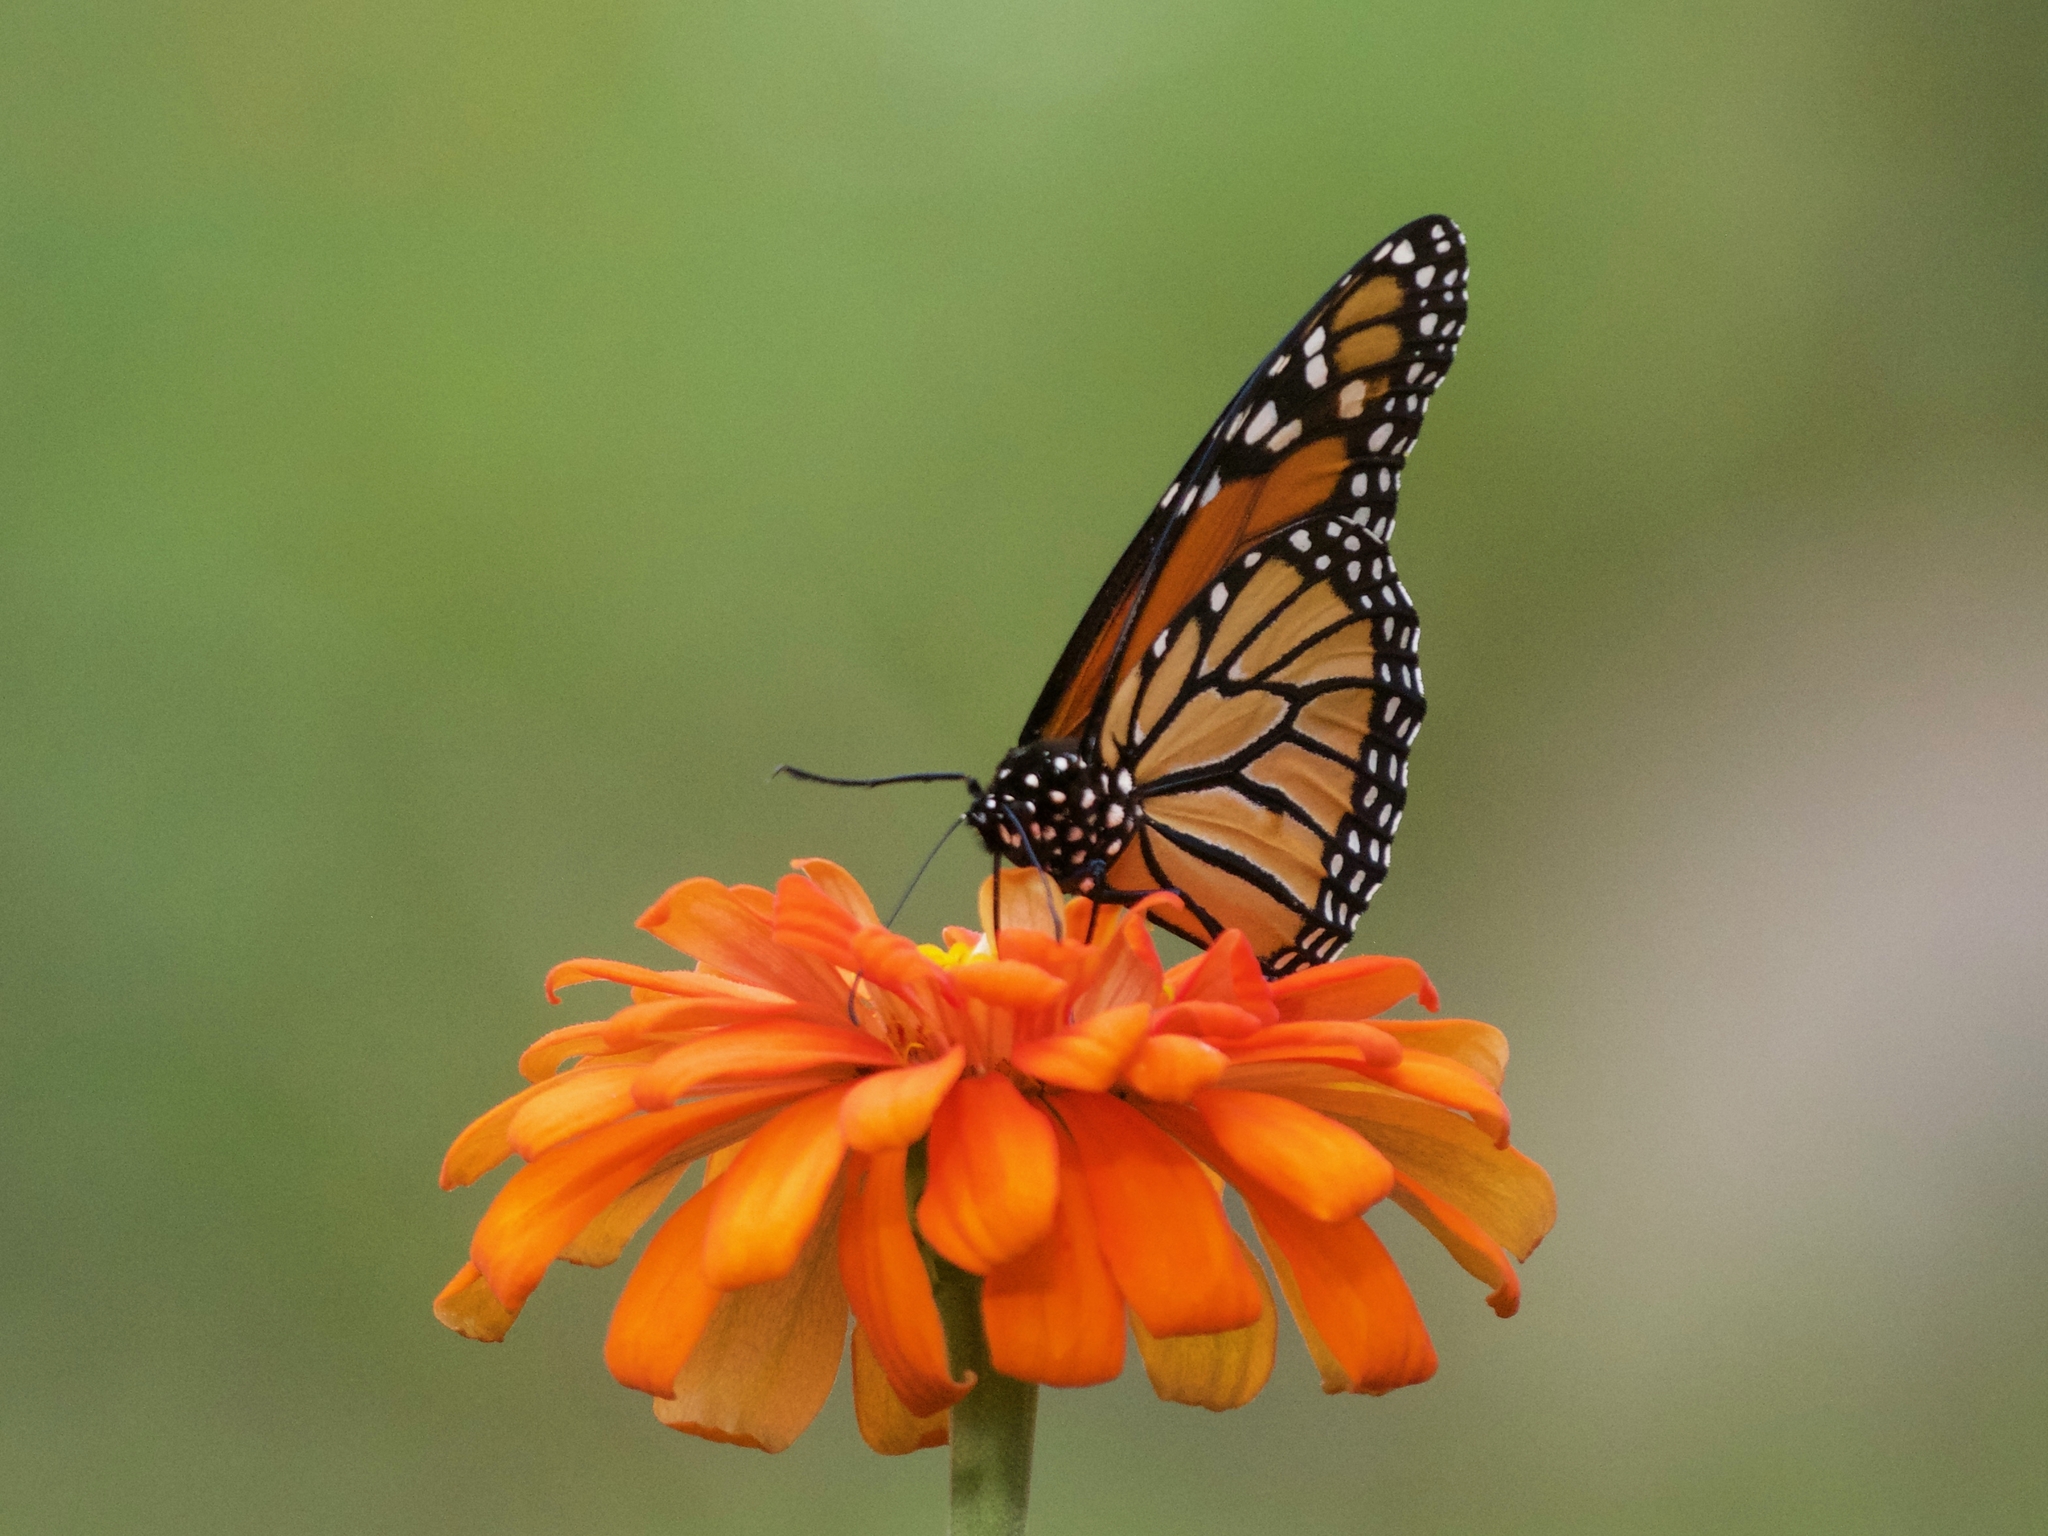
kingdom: Animalia
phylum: Arthropoda
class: Insecta
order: Lepidoptera
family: Nymphalidae
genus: Danaus
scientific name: Danaus plexippus
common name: Monarch
